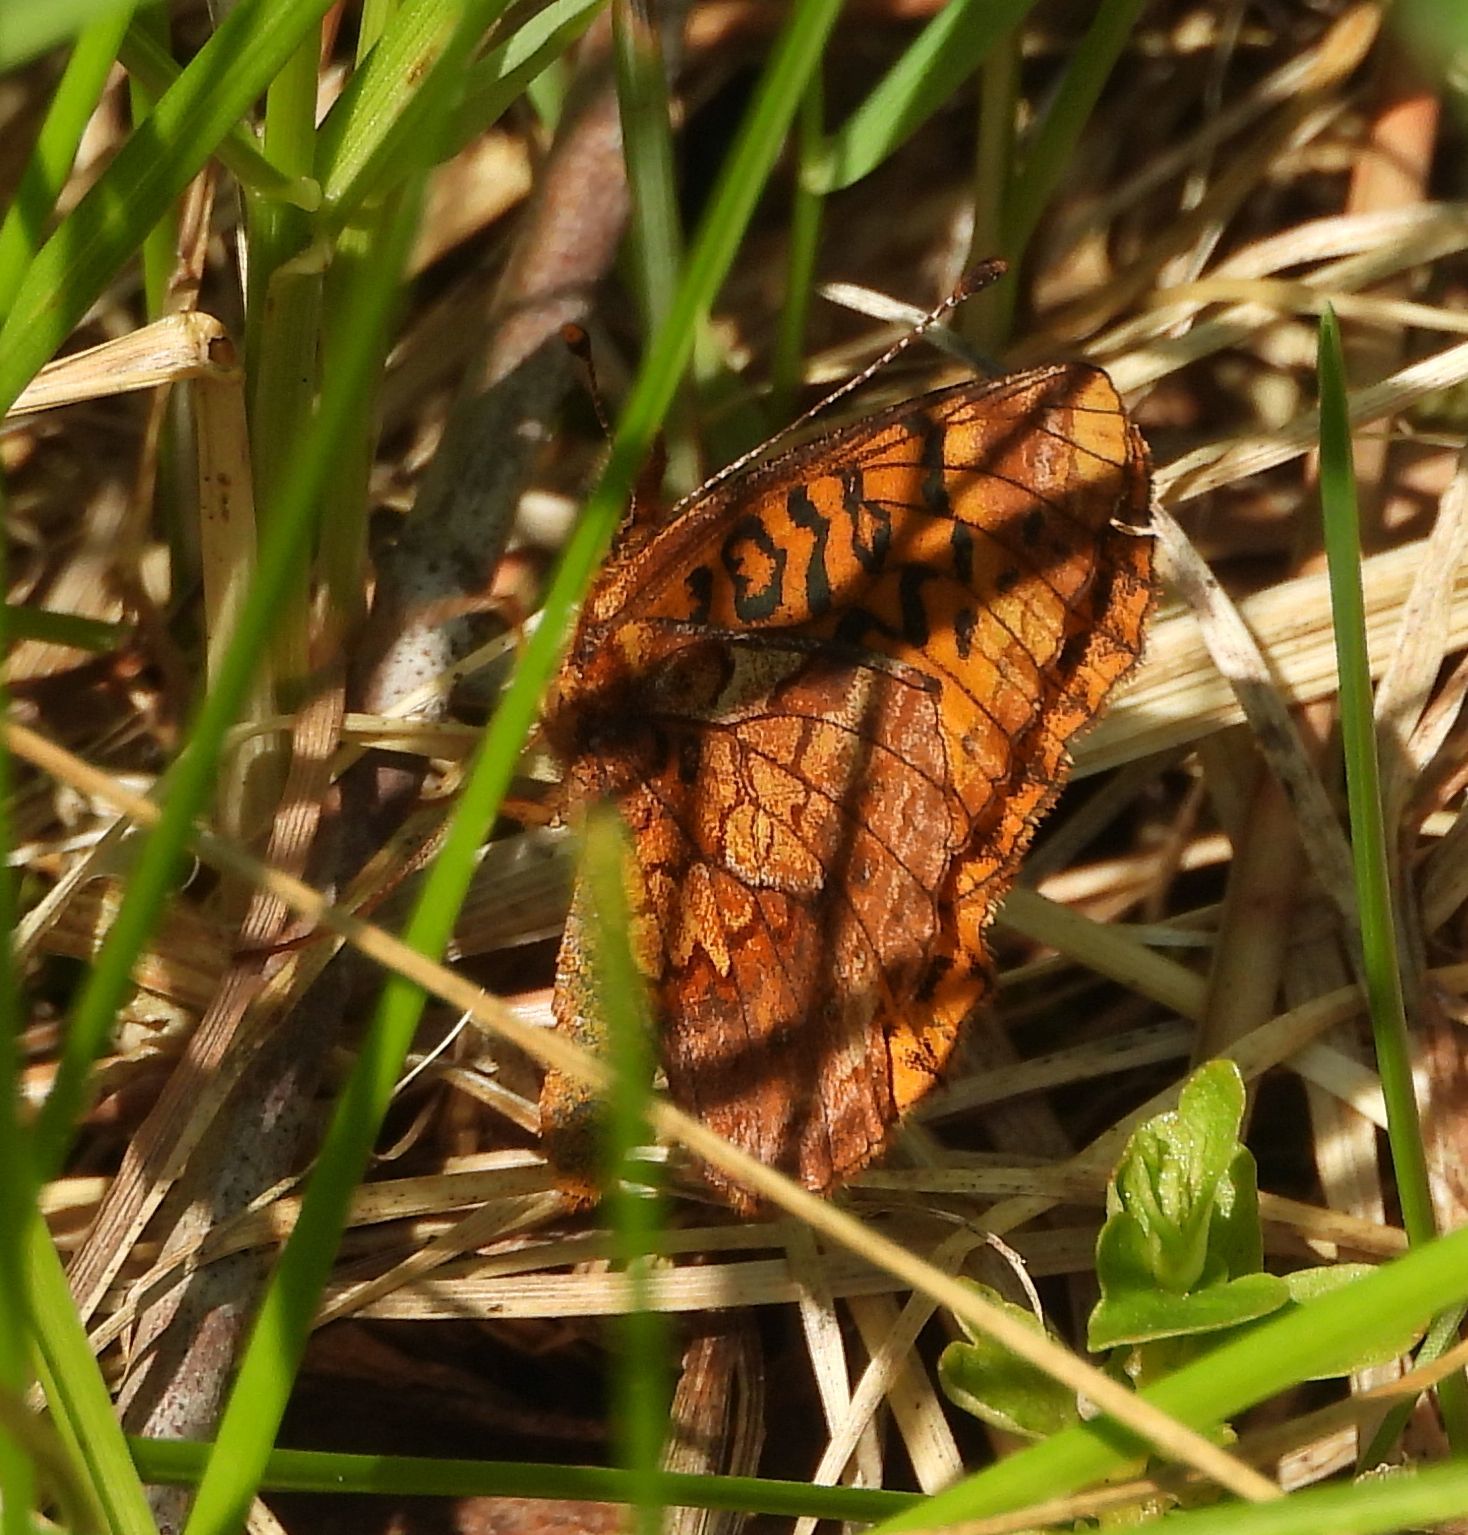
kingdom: Animalia
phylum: Arthropoda
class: Insecta
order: Lepidoptera
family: Nymphalidae
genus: Clossiana
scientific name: Clossiana toddi
